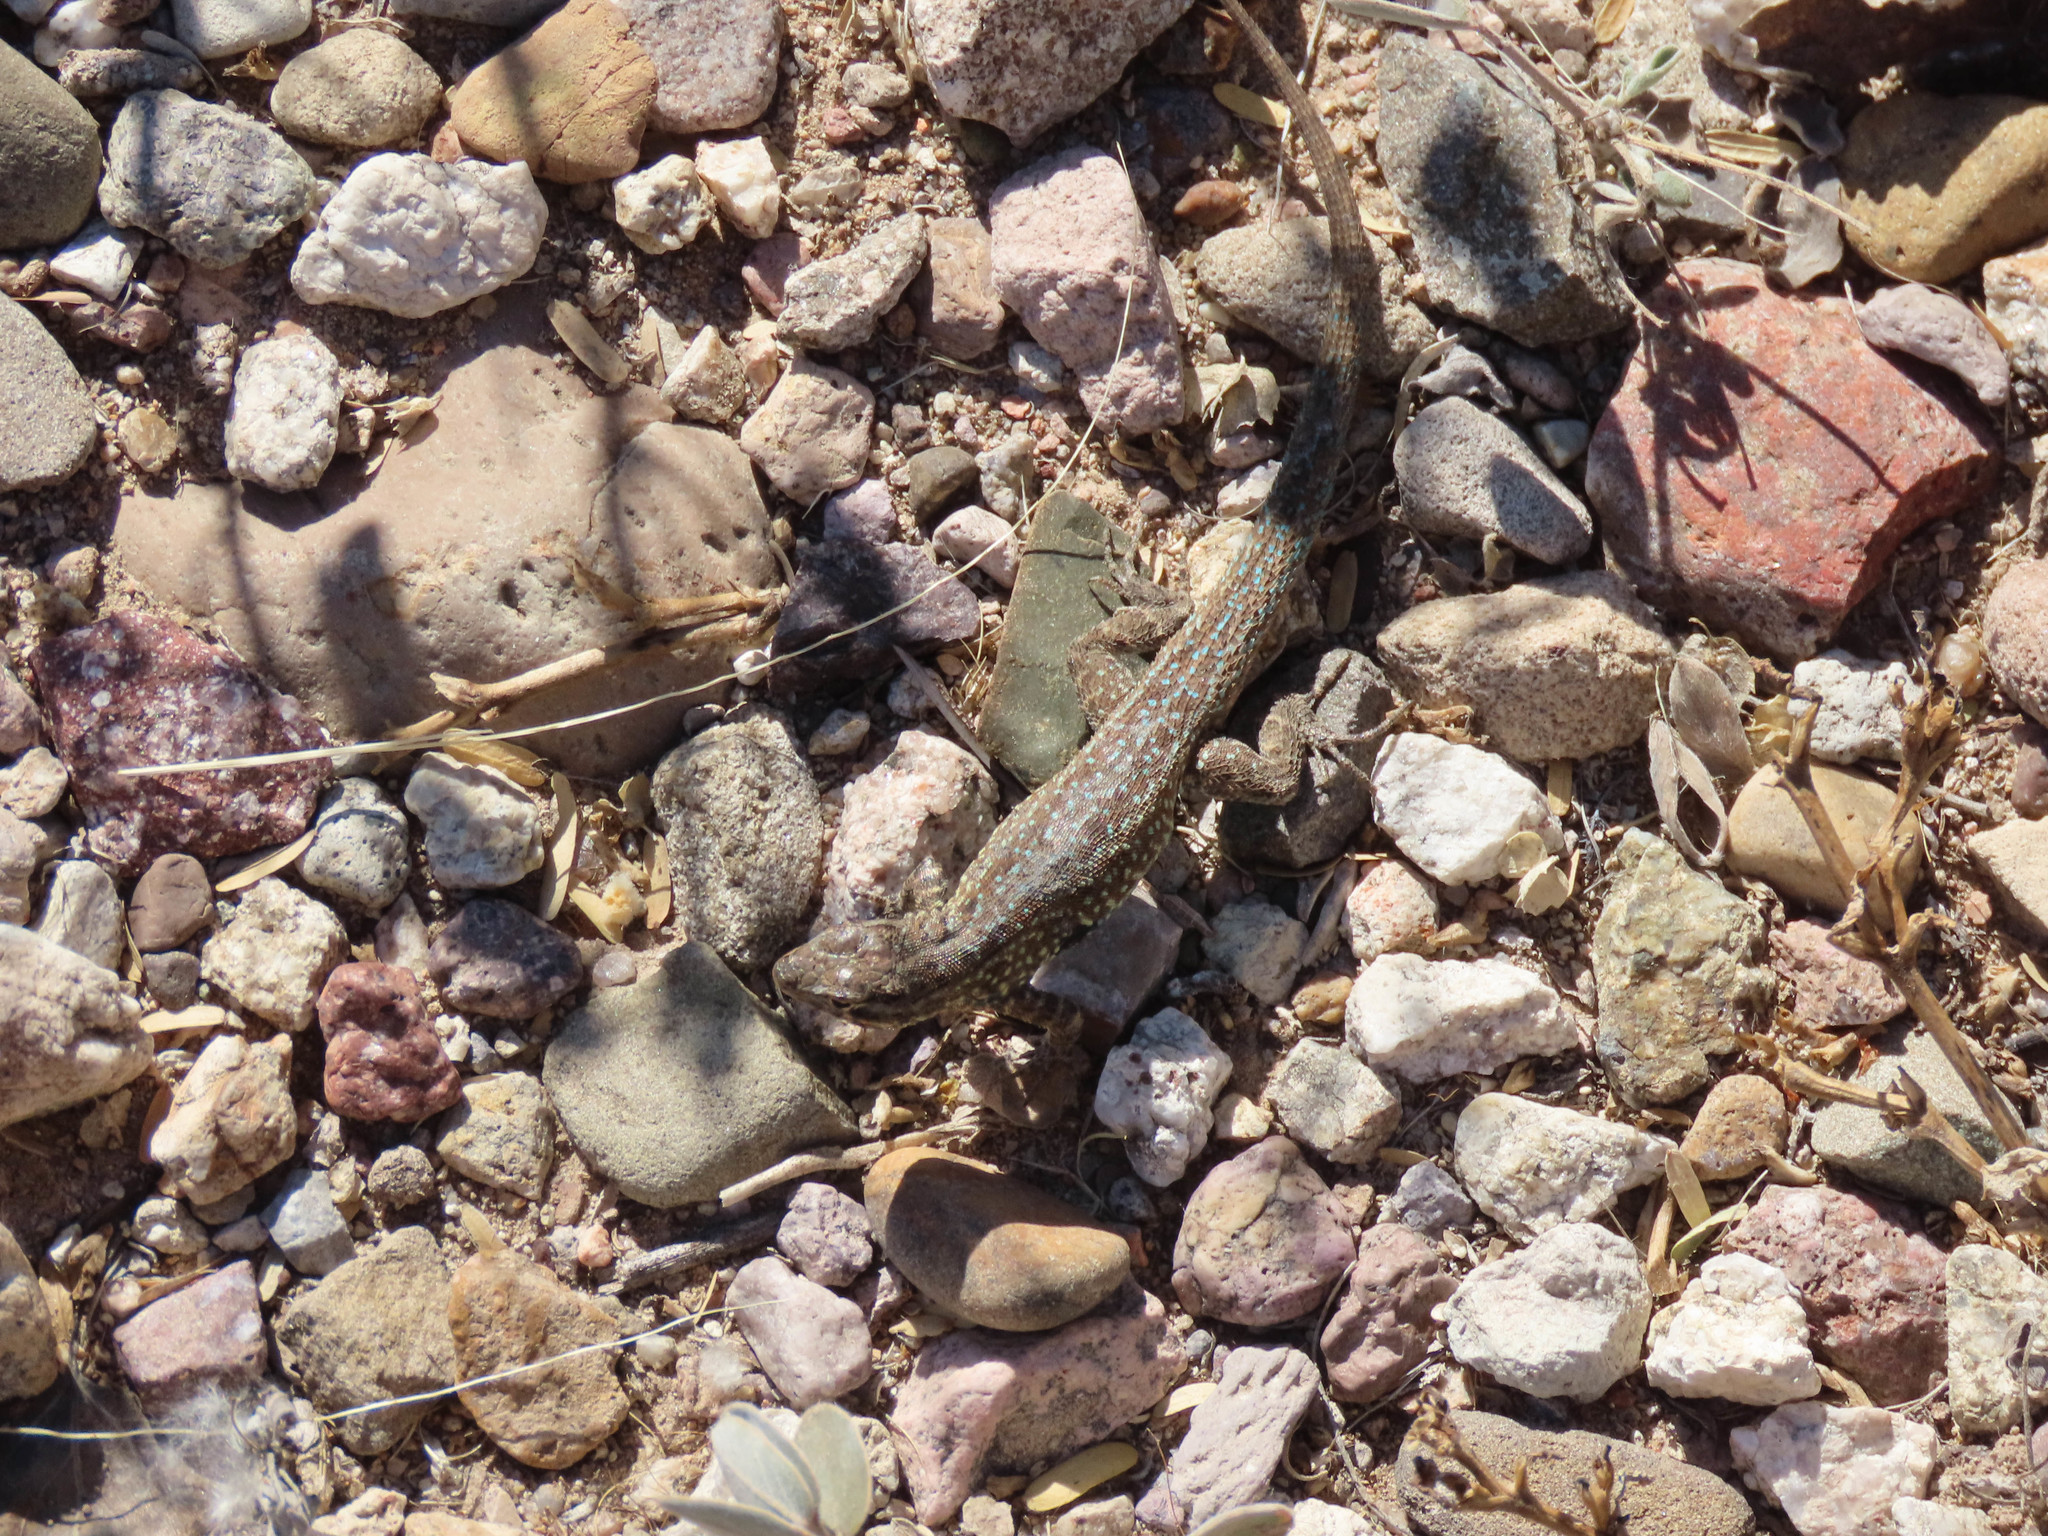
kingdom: Animalia
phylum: Chordata
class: Squamata
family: Phrynosomatidae
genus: Uta
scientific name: Uta stansburiana
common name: Side-blotched lizard
